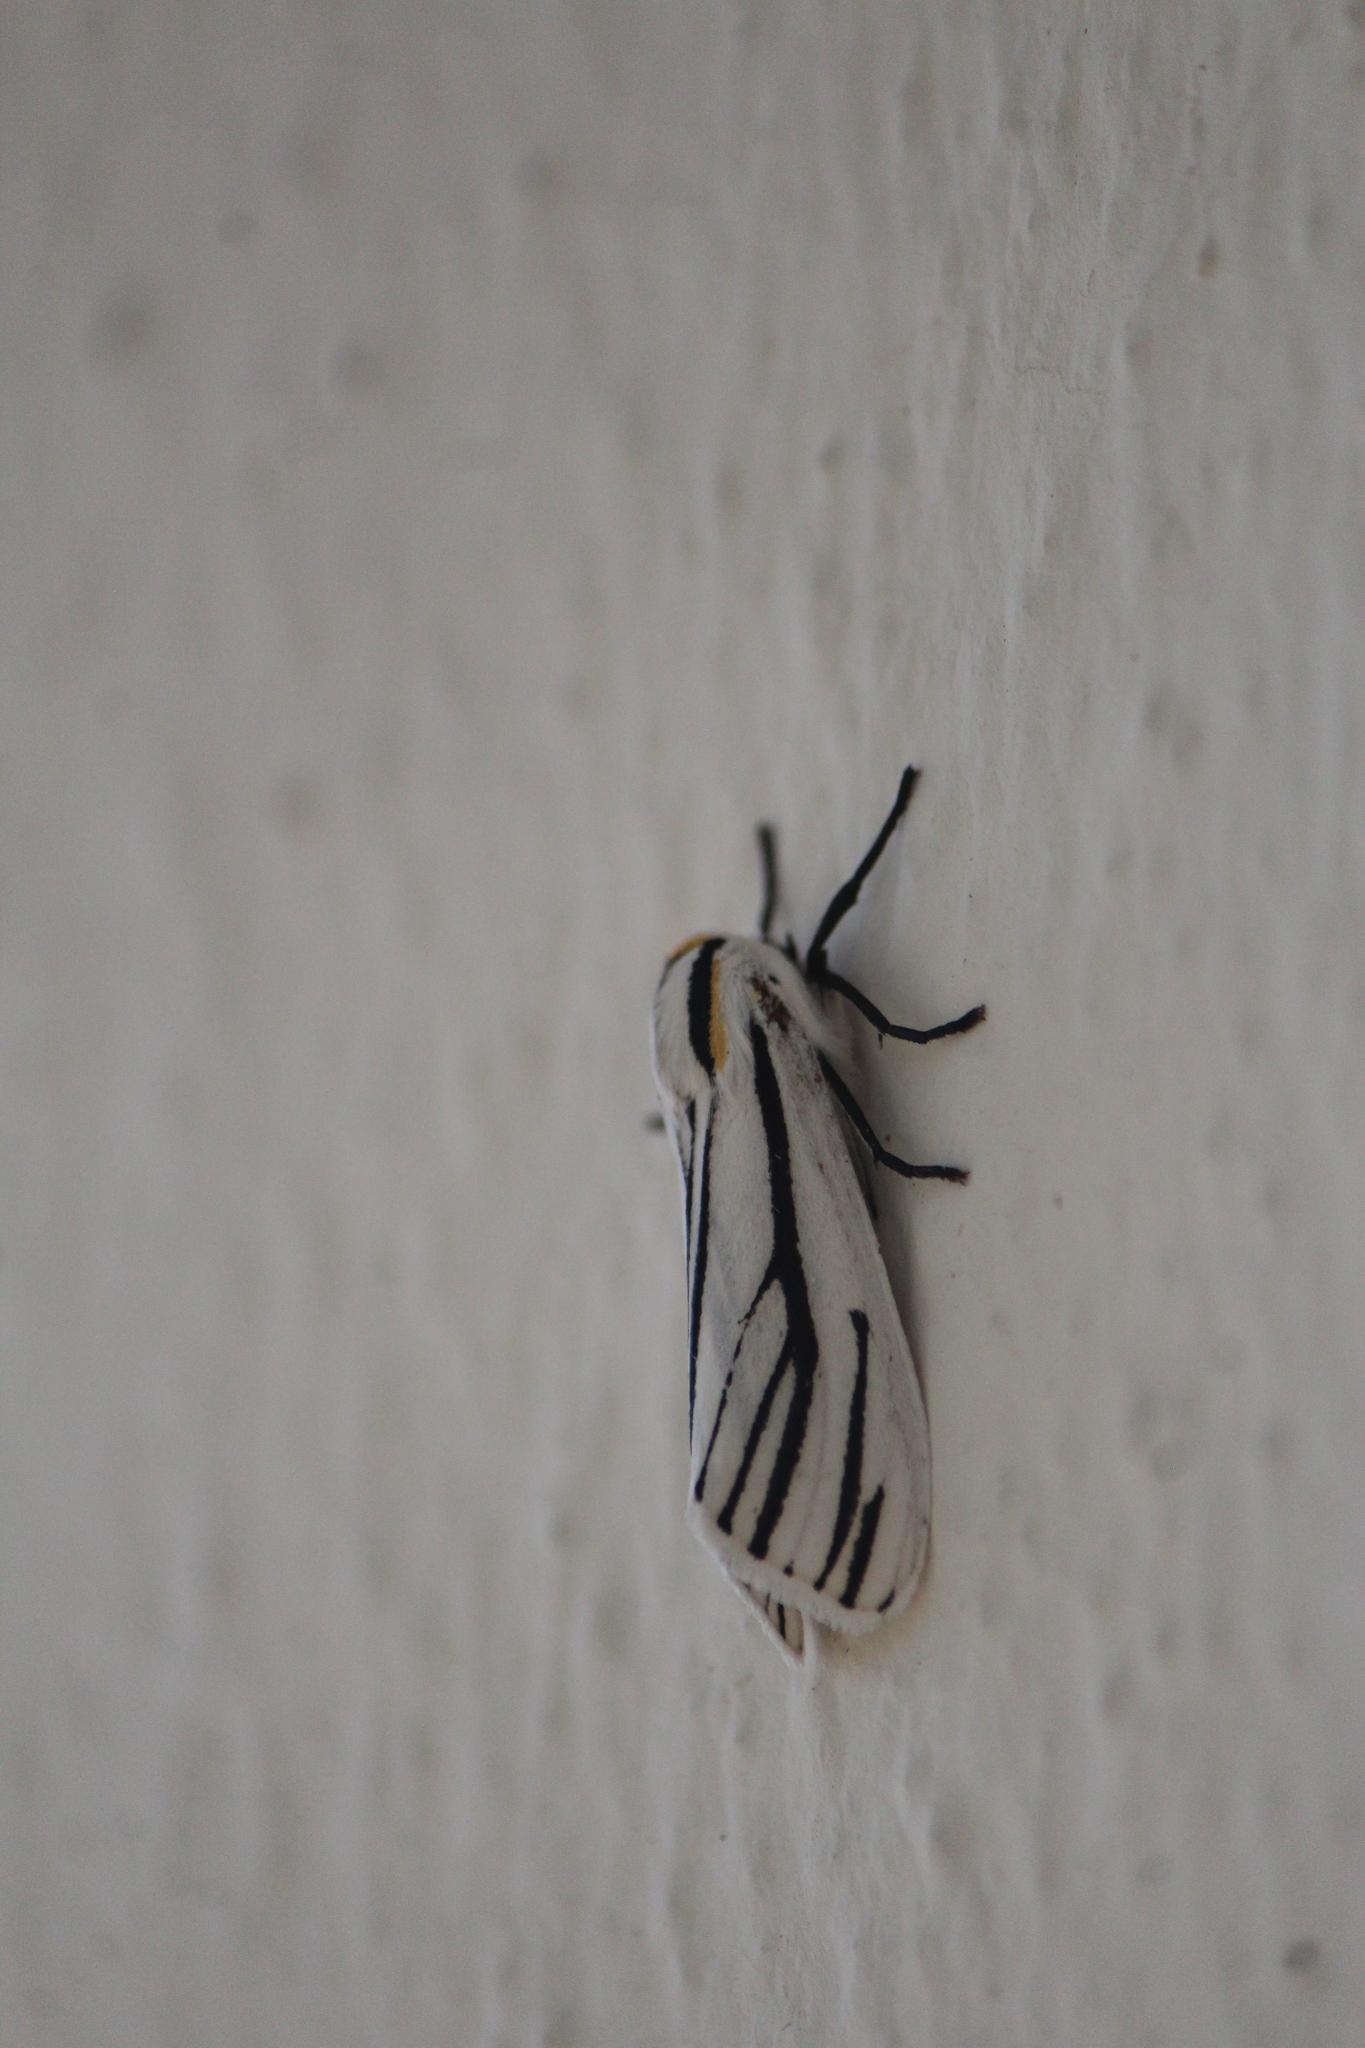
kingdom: Animalia
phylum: Arthropoda
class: Insecta
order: Lepidoptera
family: Erebidae
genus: Ectypia
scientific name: Ectypia clio
